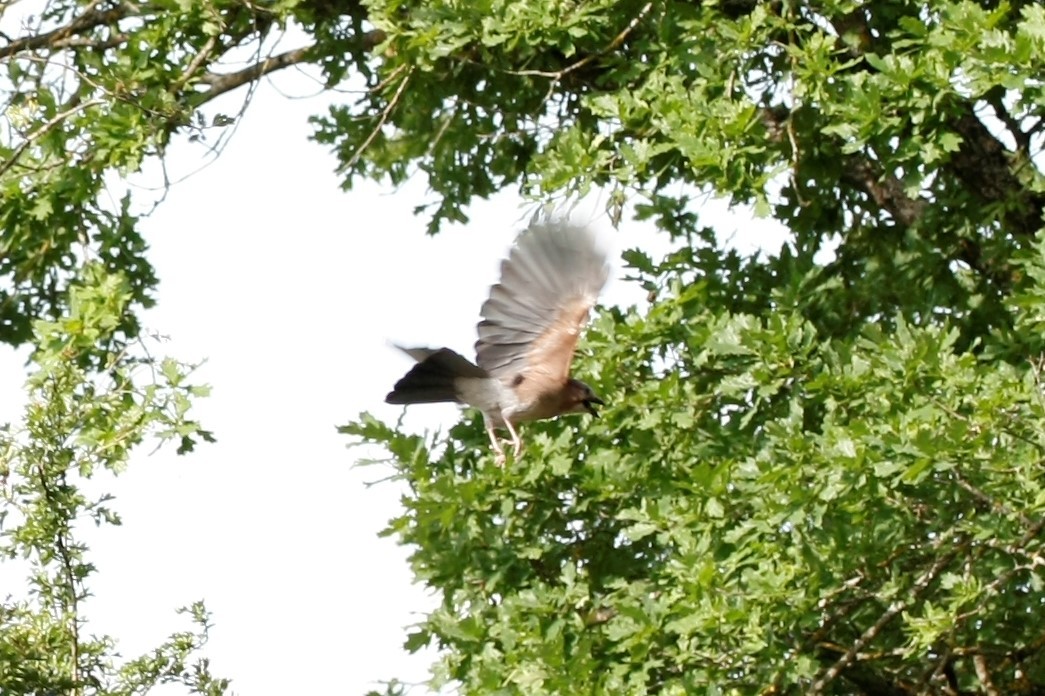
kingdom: Animalia
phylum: Chordata
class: Aves
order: Passeriformes
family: Corvidae
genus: Garrulus
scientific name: Garrulus glandarius
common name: Eurasian jay
